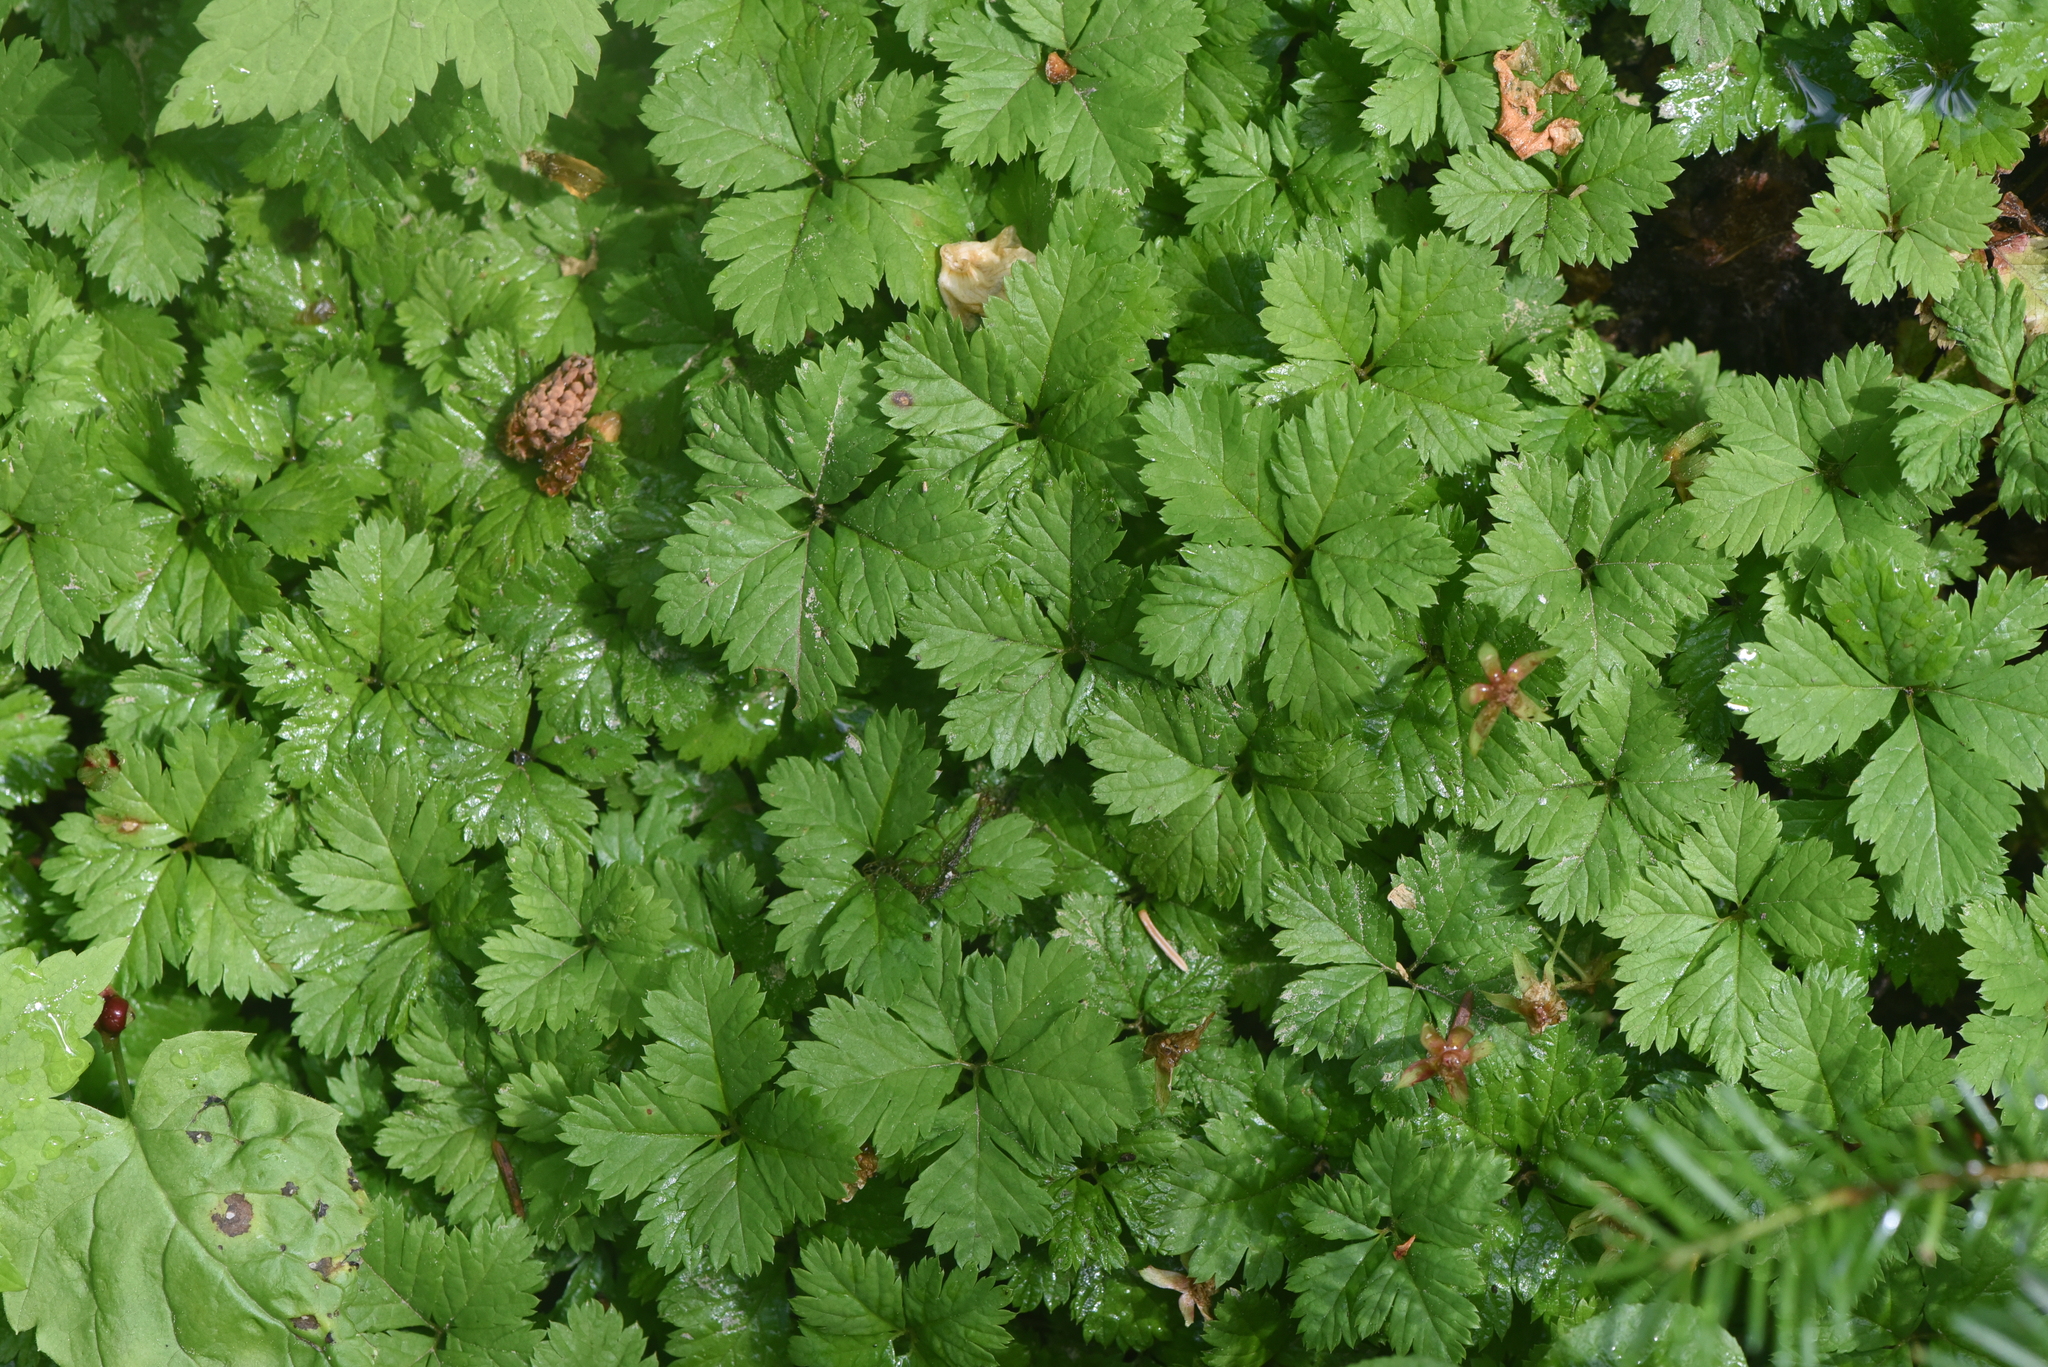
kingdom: Plantae
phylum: Tracheophyta
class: Magnoliopsida
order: Rosales
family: Rosaceae
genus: Rubus
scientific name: Rubus pedatus
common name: Creeping raspberry
